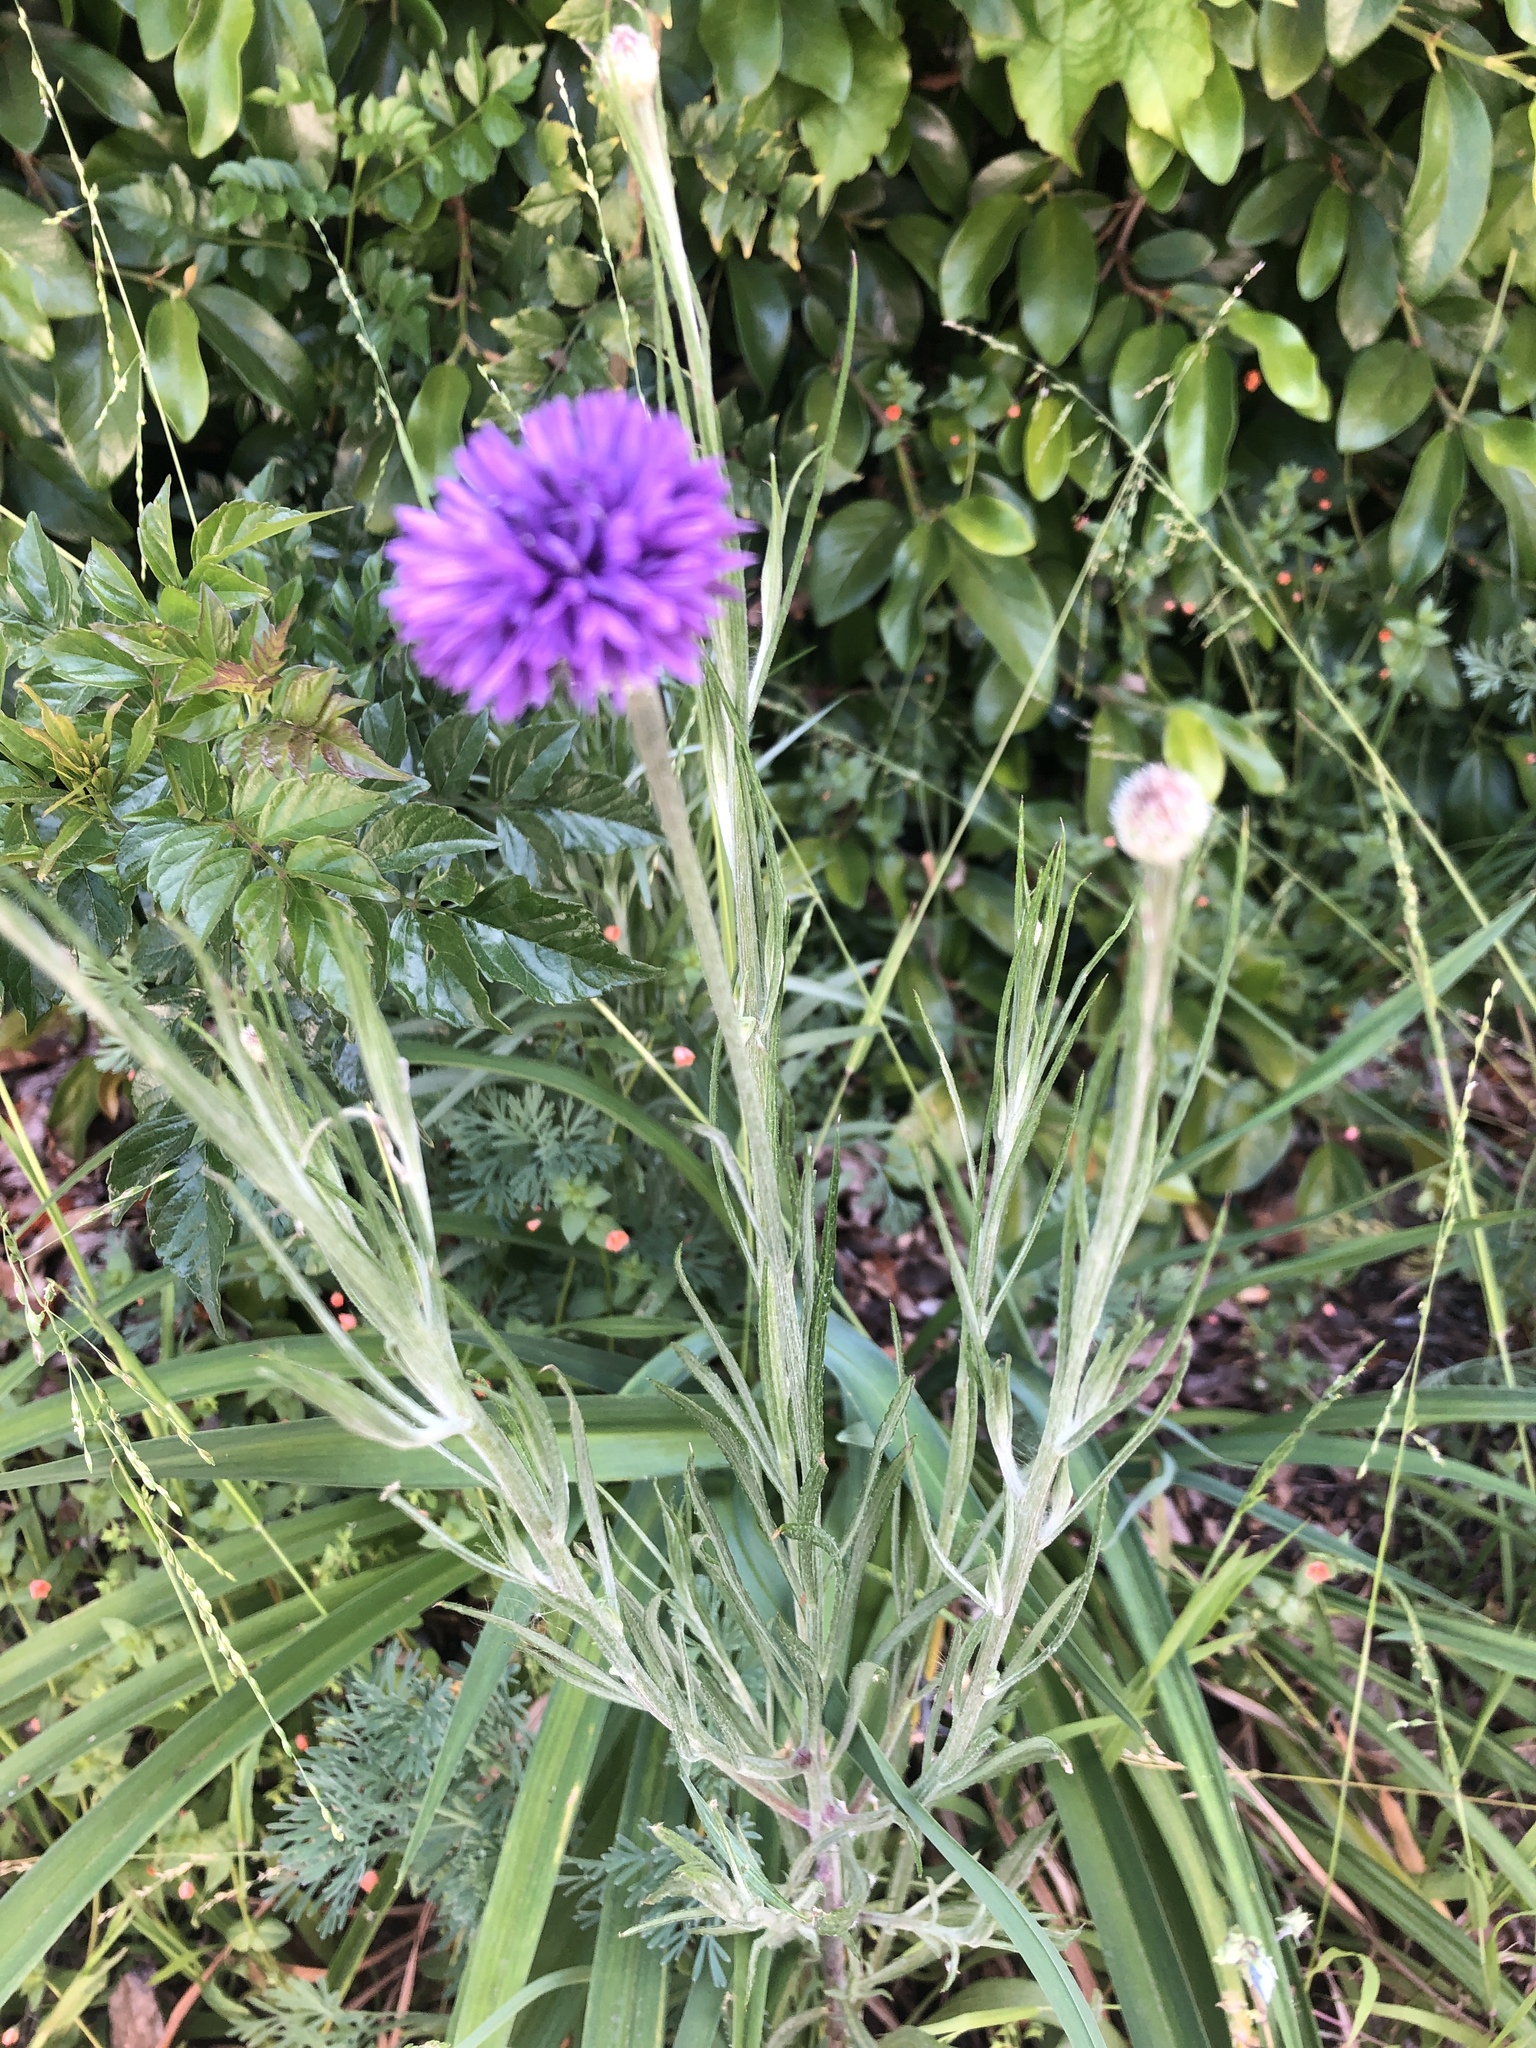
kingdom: Plantae
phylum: Tracheophyta
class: Magnoliopsida
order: Asterales
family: Asteraceae
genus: Centaurea
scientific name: Centaurea cyanus
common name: Cornflower
